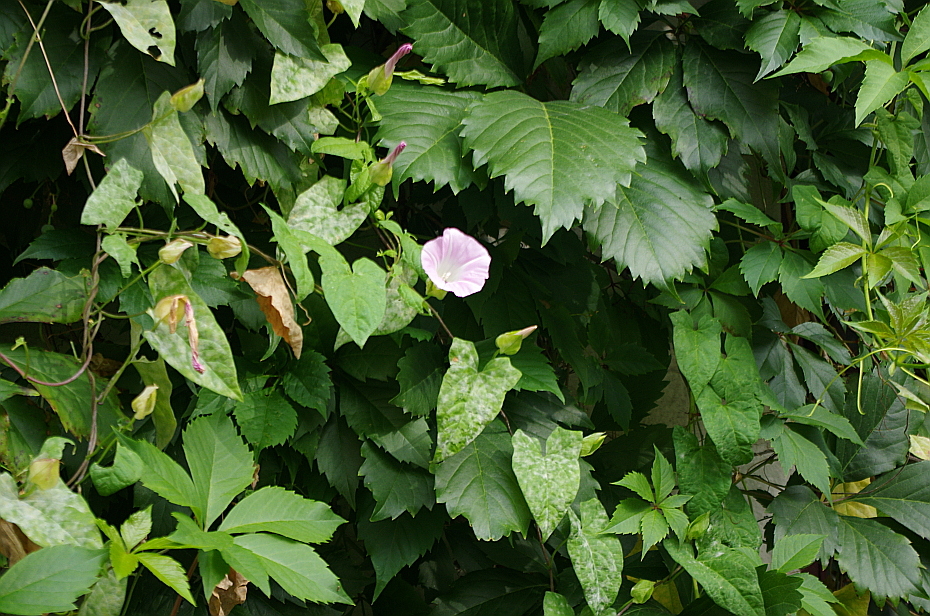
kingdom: Plantae
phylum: Tracheophyta
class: Magnoliopsida
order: Solanales
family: Convolvulaceae
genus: Calystegia
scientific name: Calystegia sepium
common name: Hedge bindweed
